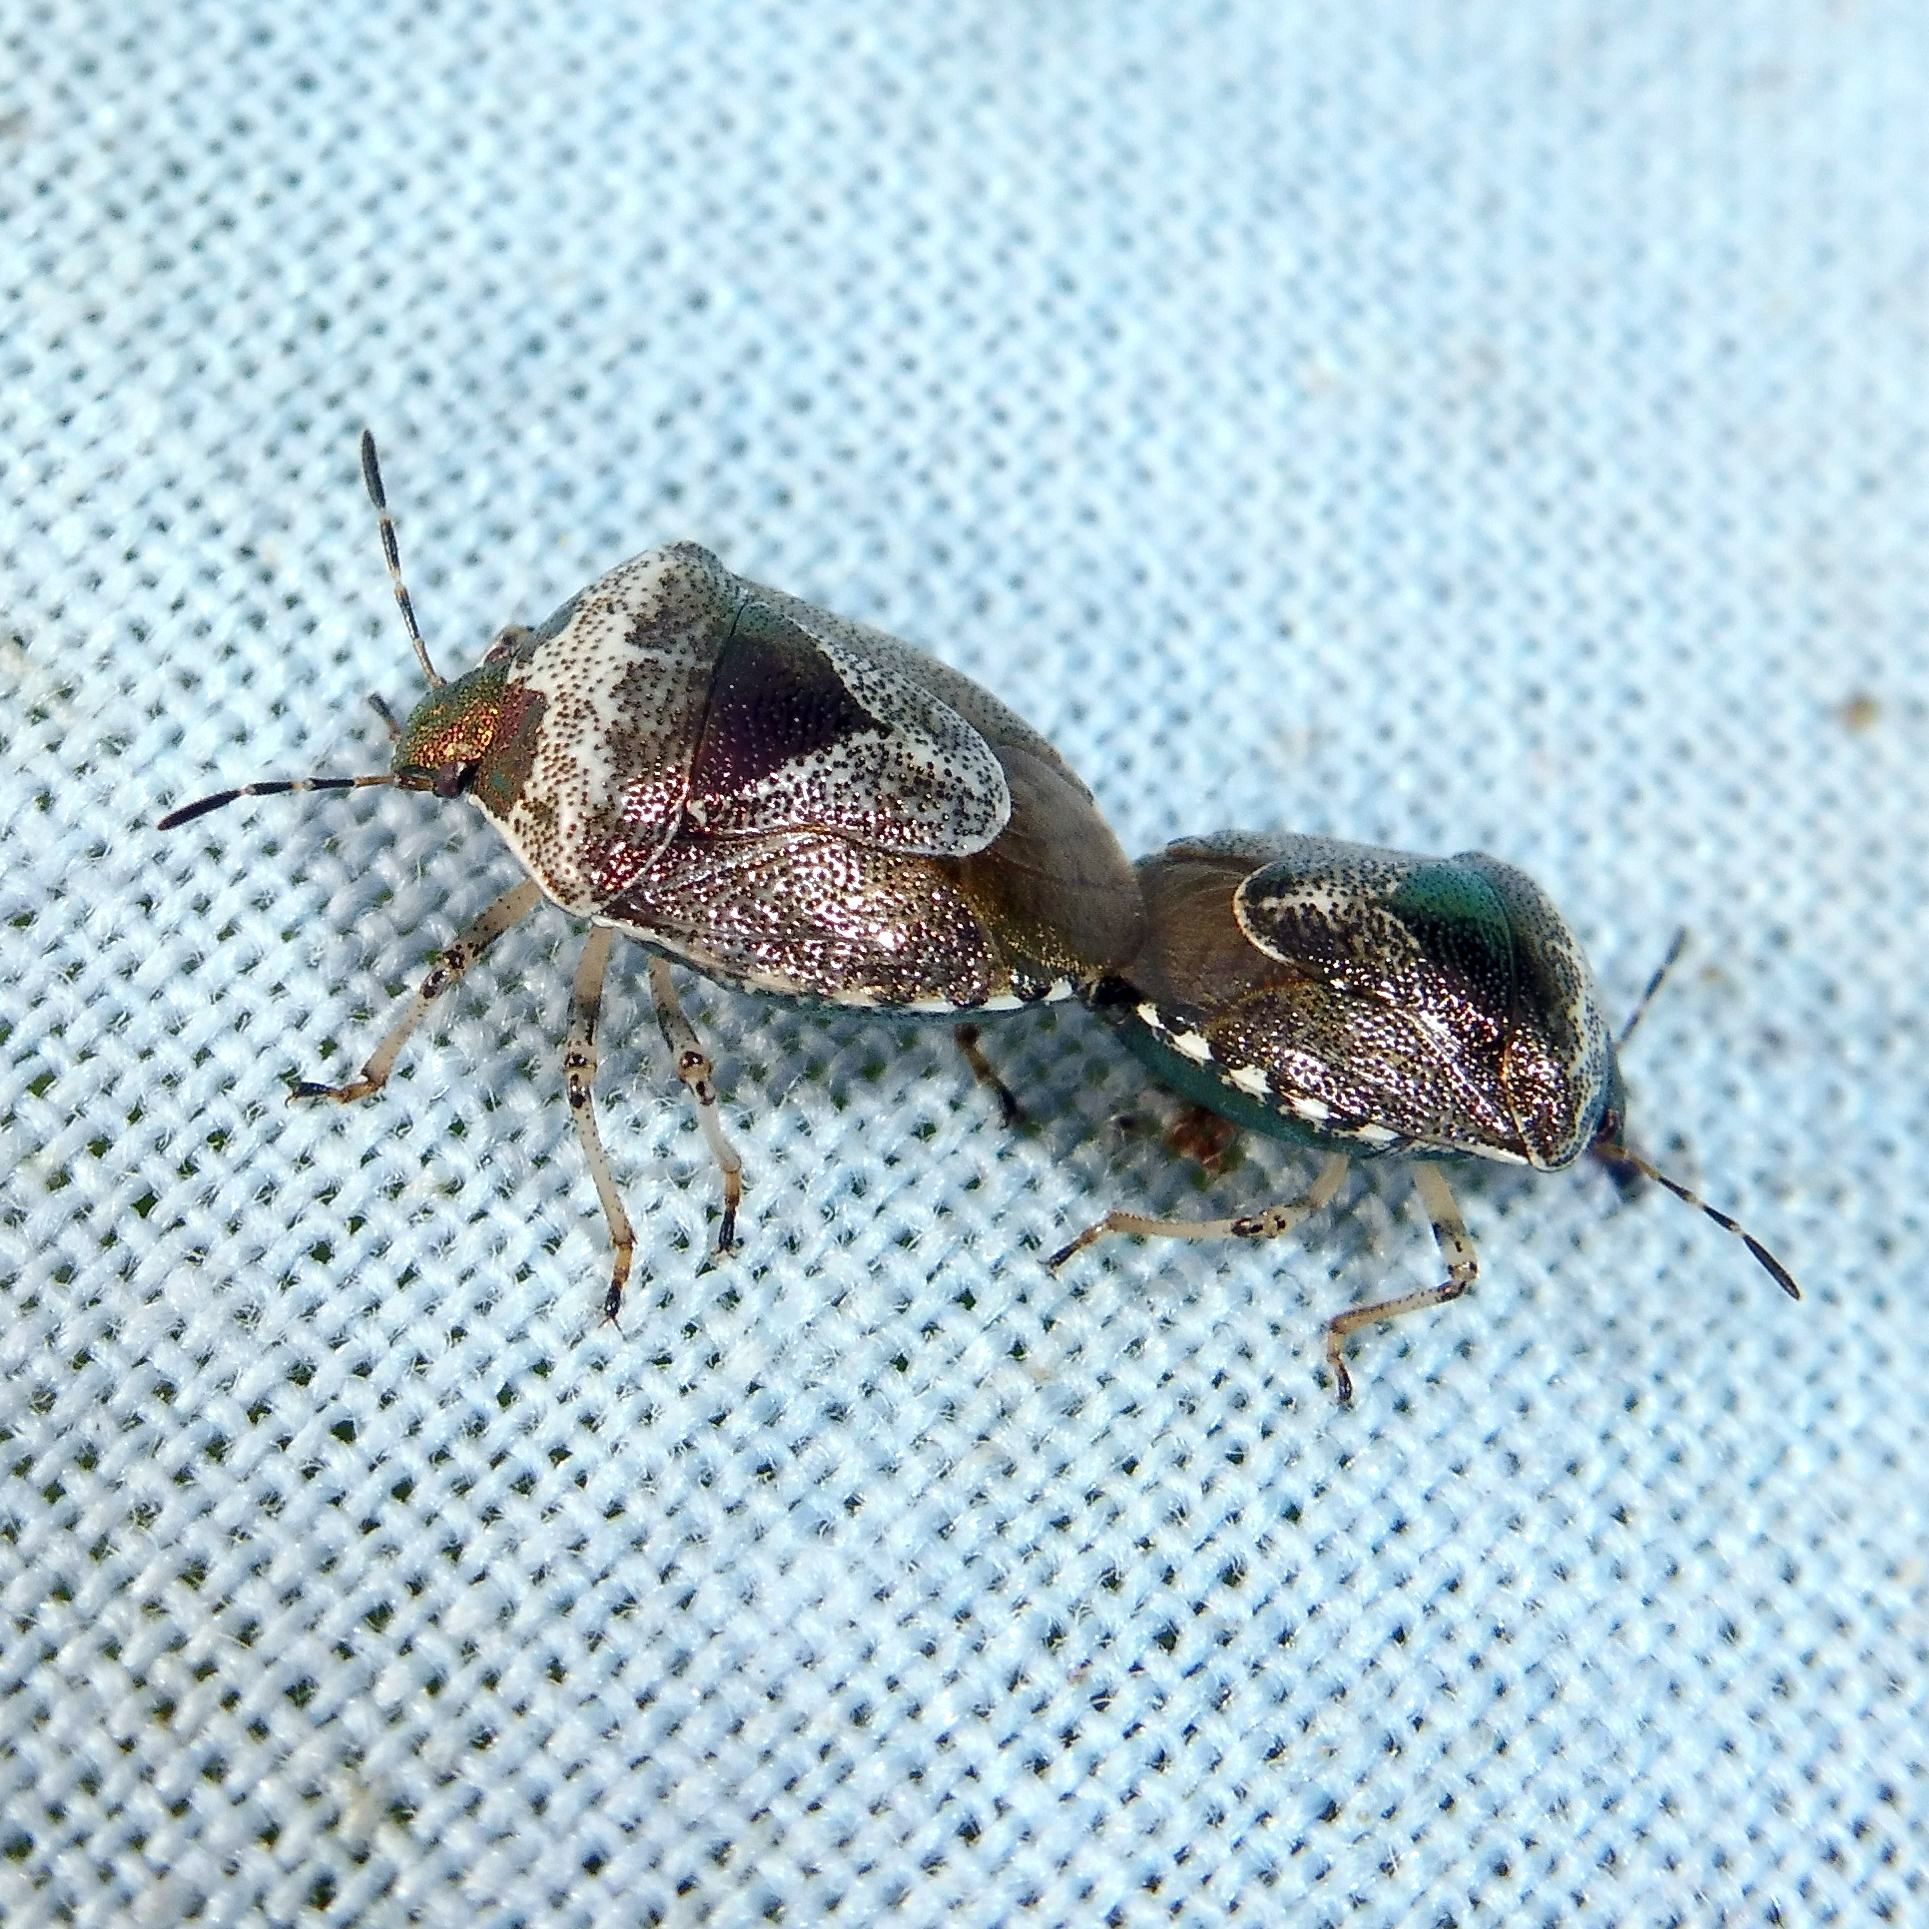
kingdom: Animalia
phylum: Arthropoda
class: Insecta
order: Hemiptera
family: Pentatomidae
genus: Eysarcoris
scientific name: Eysarcoris venustissimus
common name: Woundwort shieldbug
